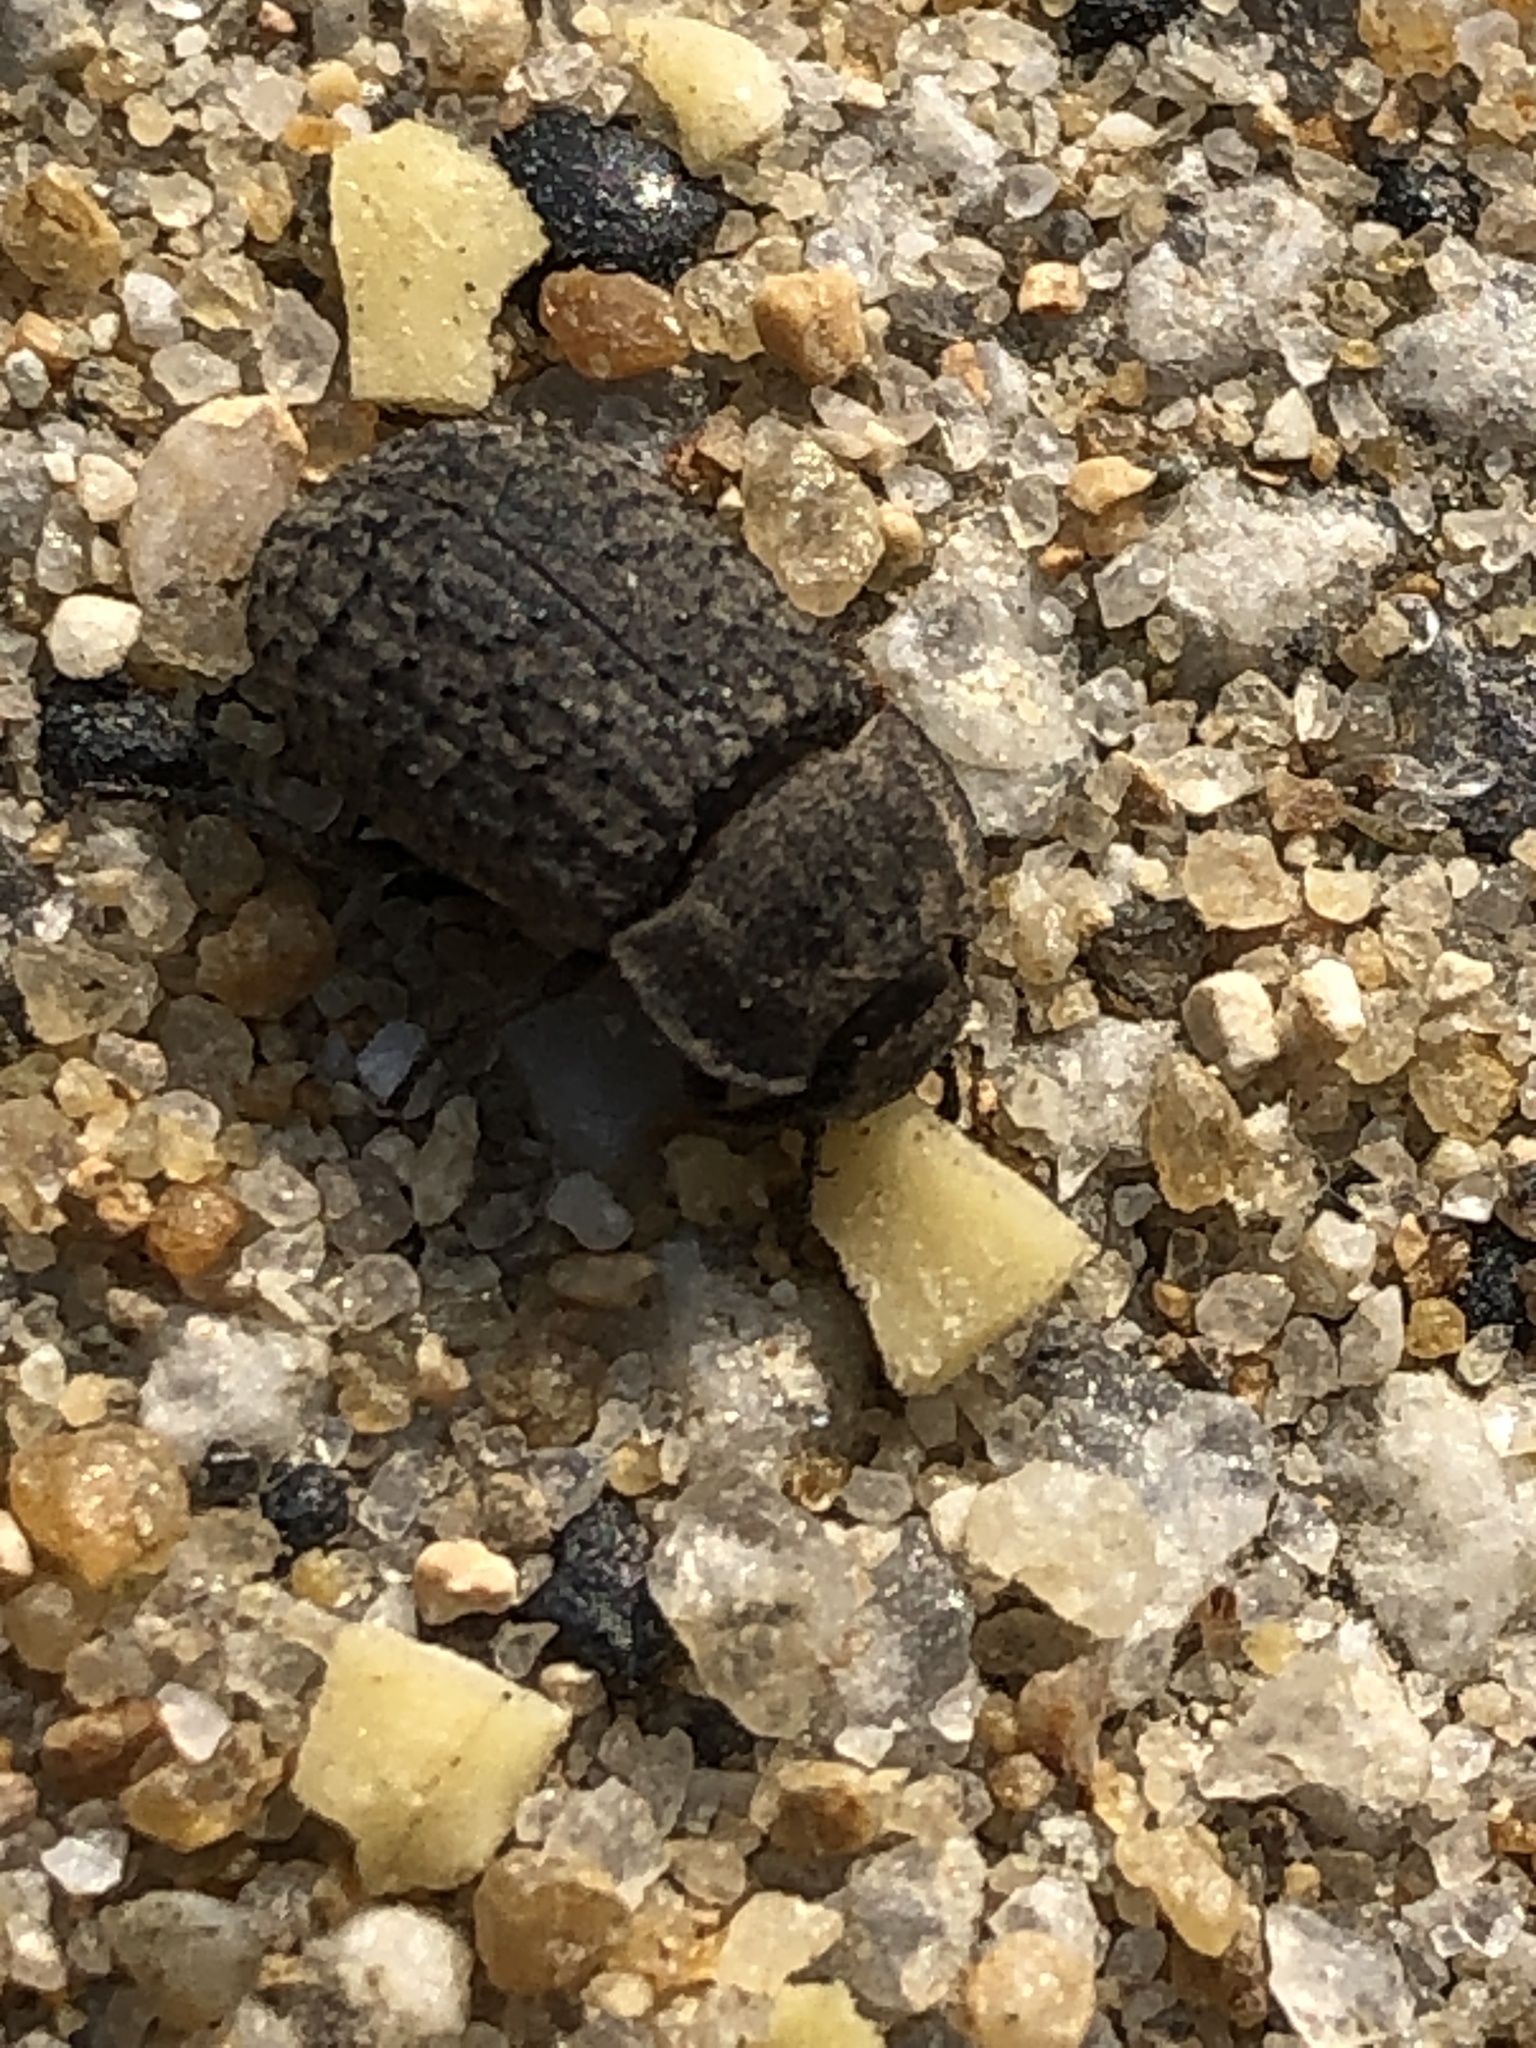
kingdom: Animalia
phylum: Arthropoda
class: Insecta
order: Coleoptera
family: Tenebrionidae
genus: Opatrum
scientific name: Opatrum subaratum
